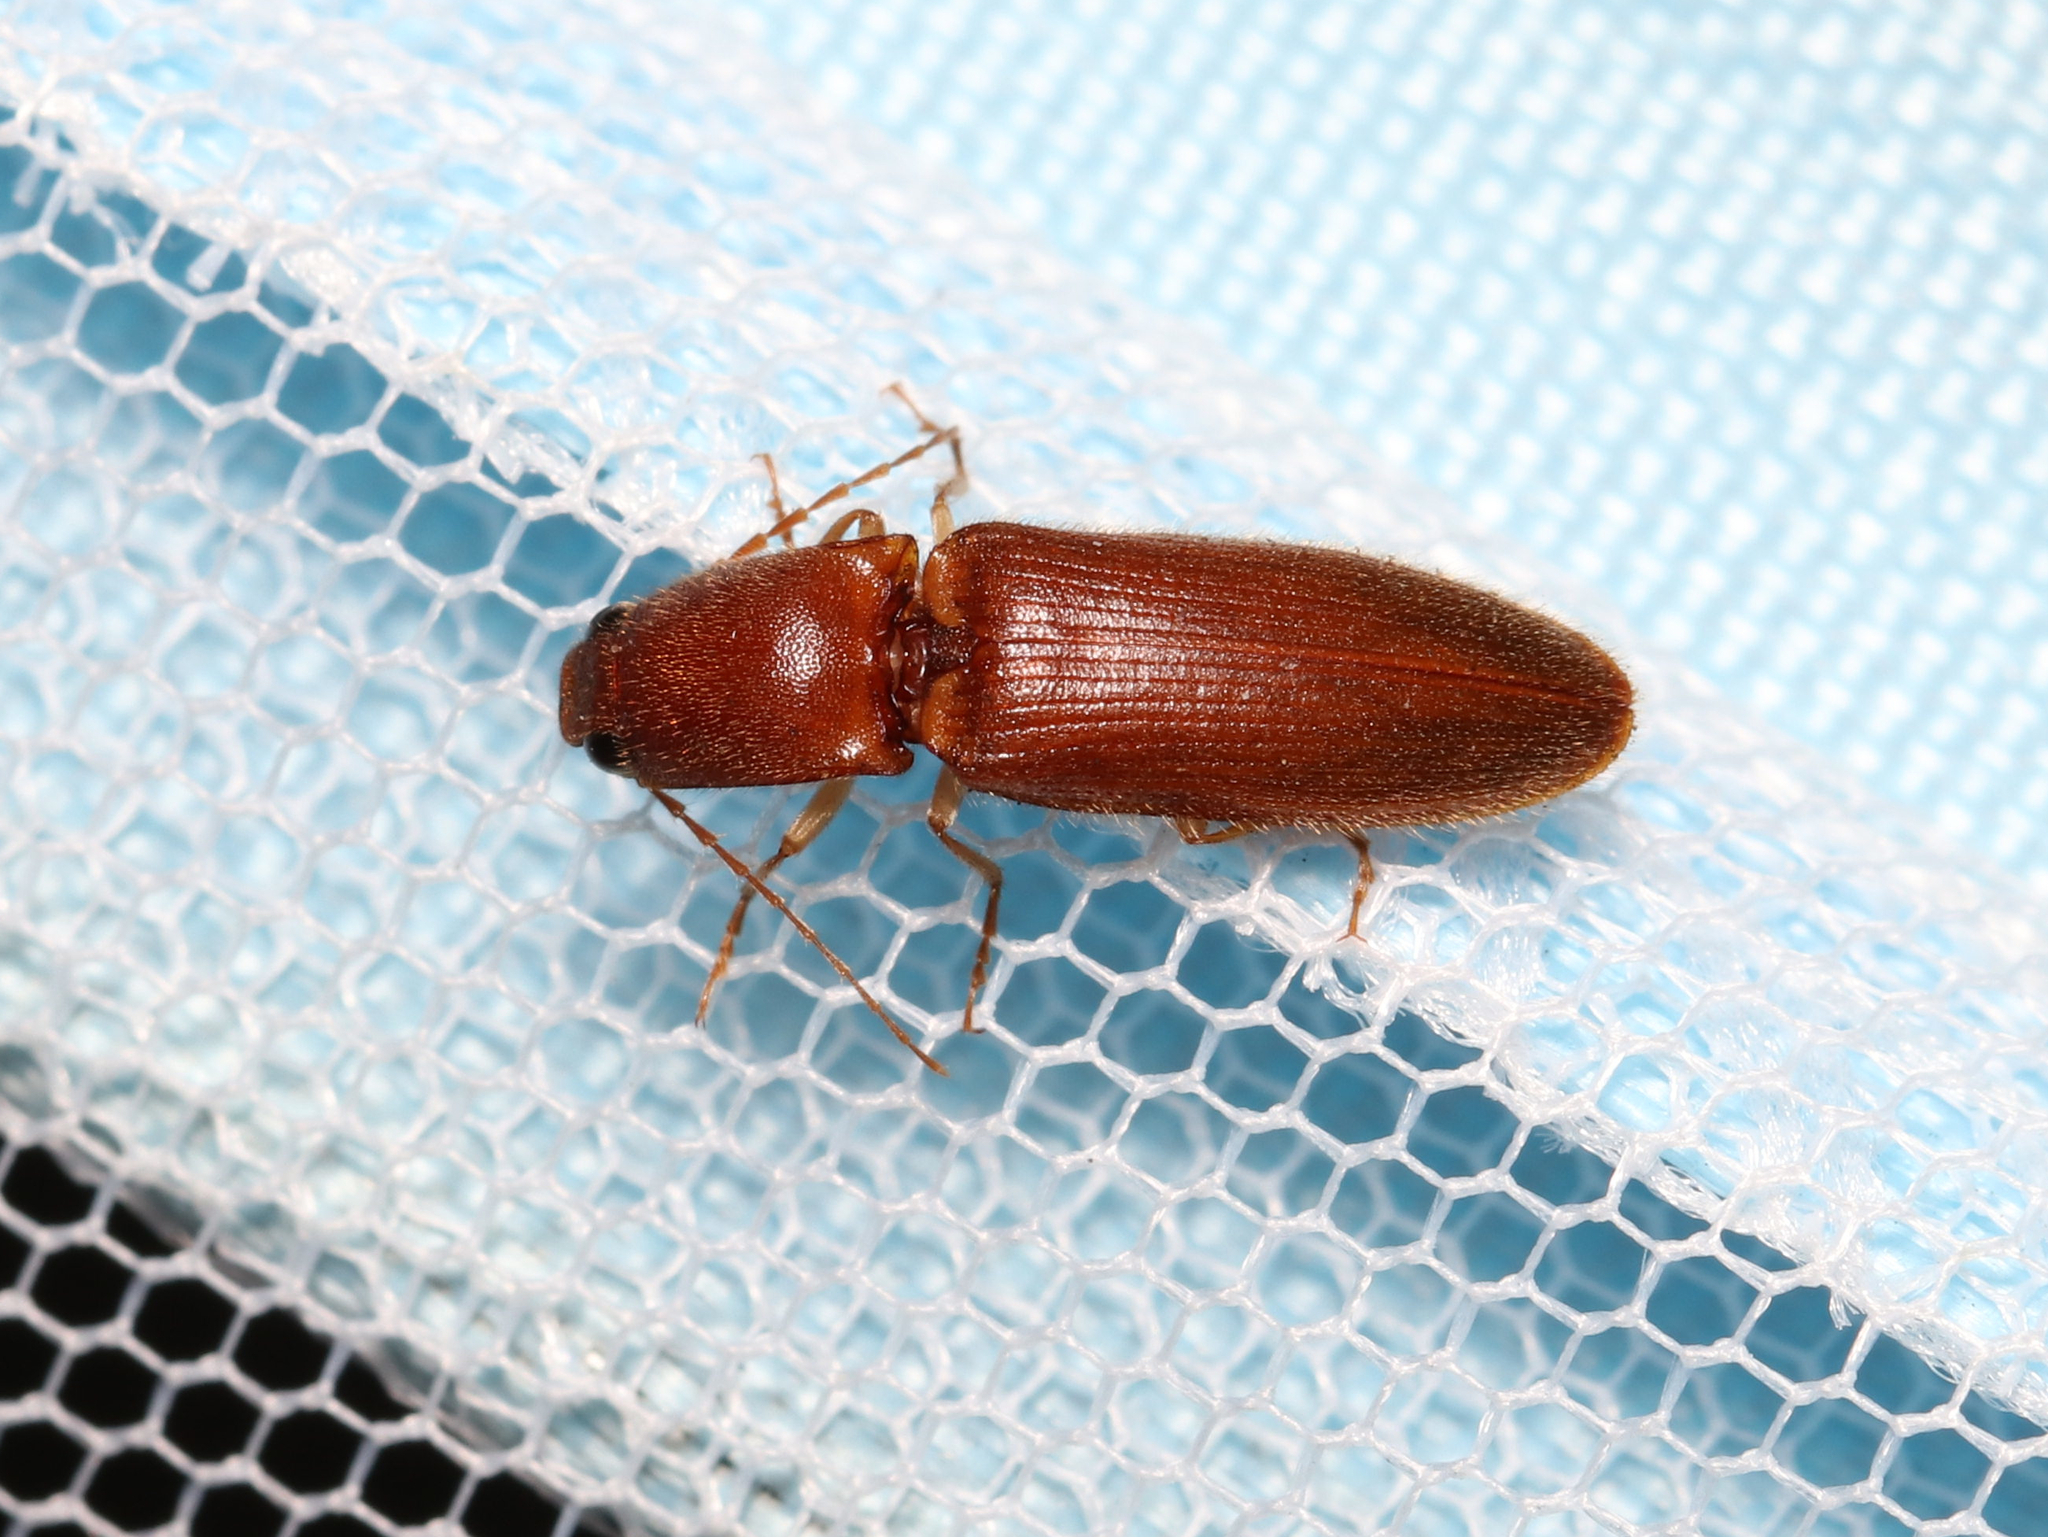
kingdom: Animalia
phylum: Arthropoda
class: Insecta
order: Coleoptera
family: Elateridae
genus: Athous
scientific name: Athous cucullatus
